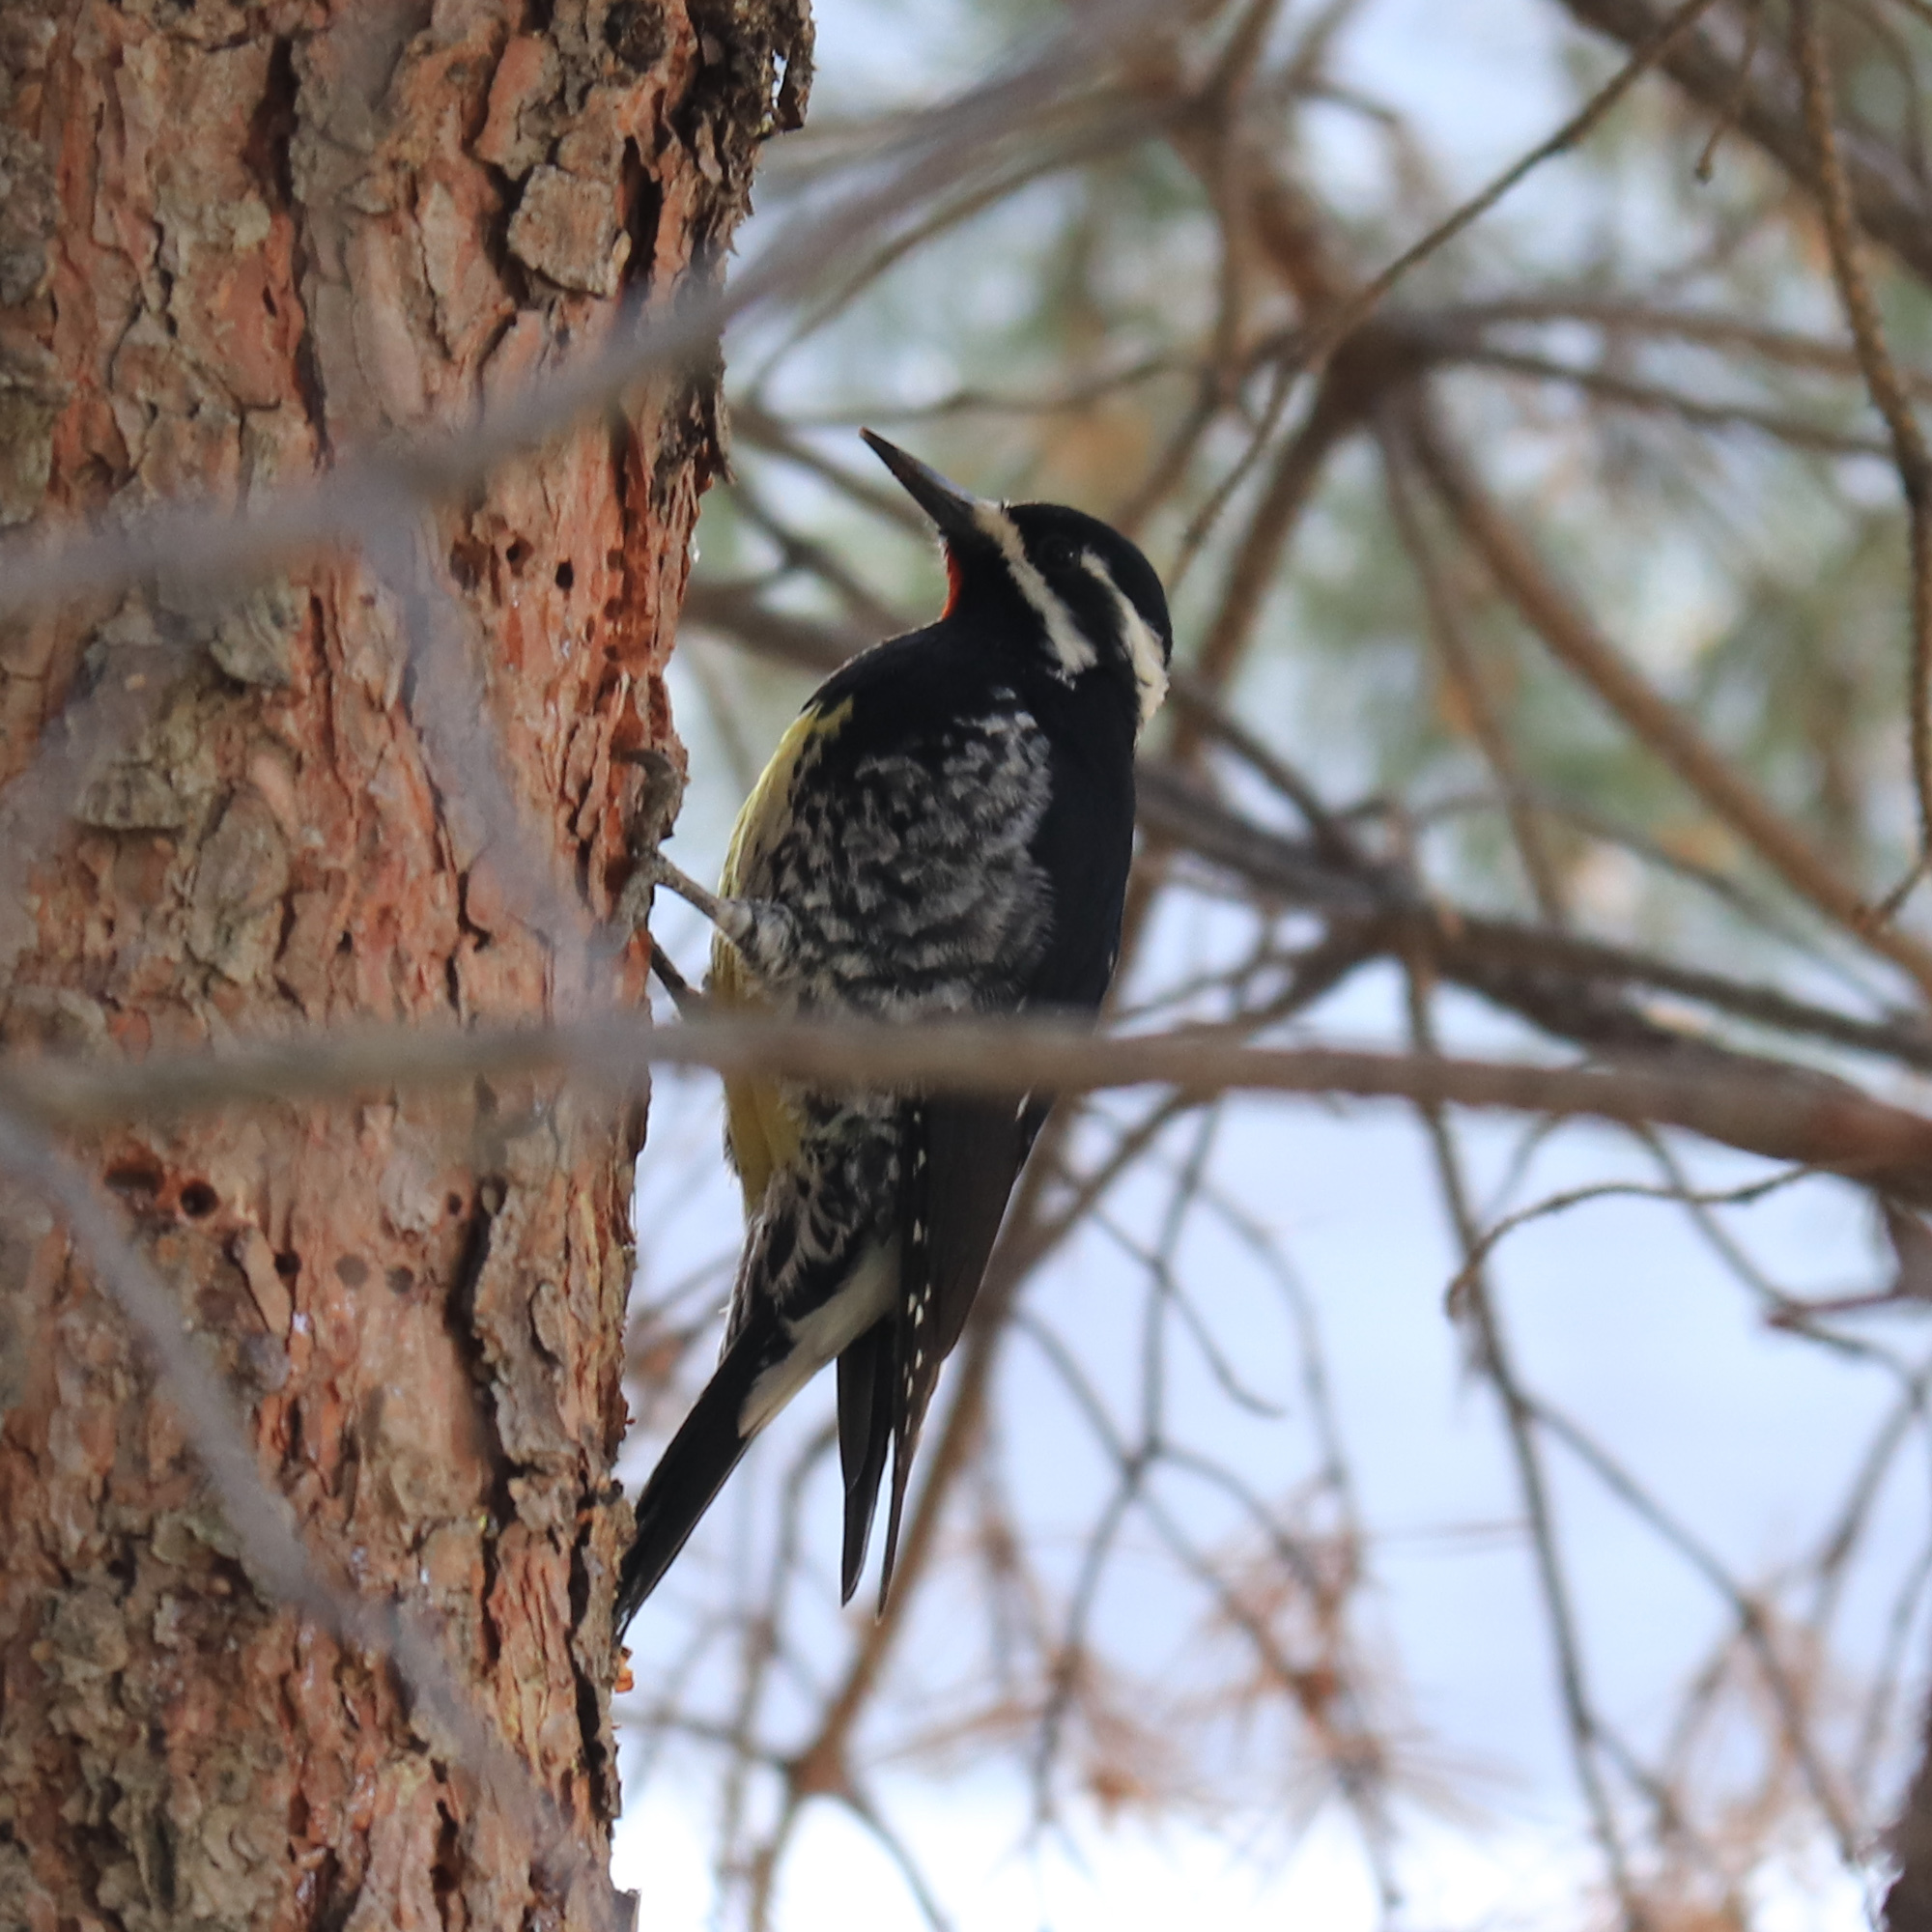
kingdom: Animalia
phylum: Chordata
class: Aves
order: Piciformes
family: Picidae
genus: Sphyrapicus
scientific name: Sphyrapicus thyroideus
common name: Williamson's sapsucker
